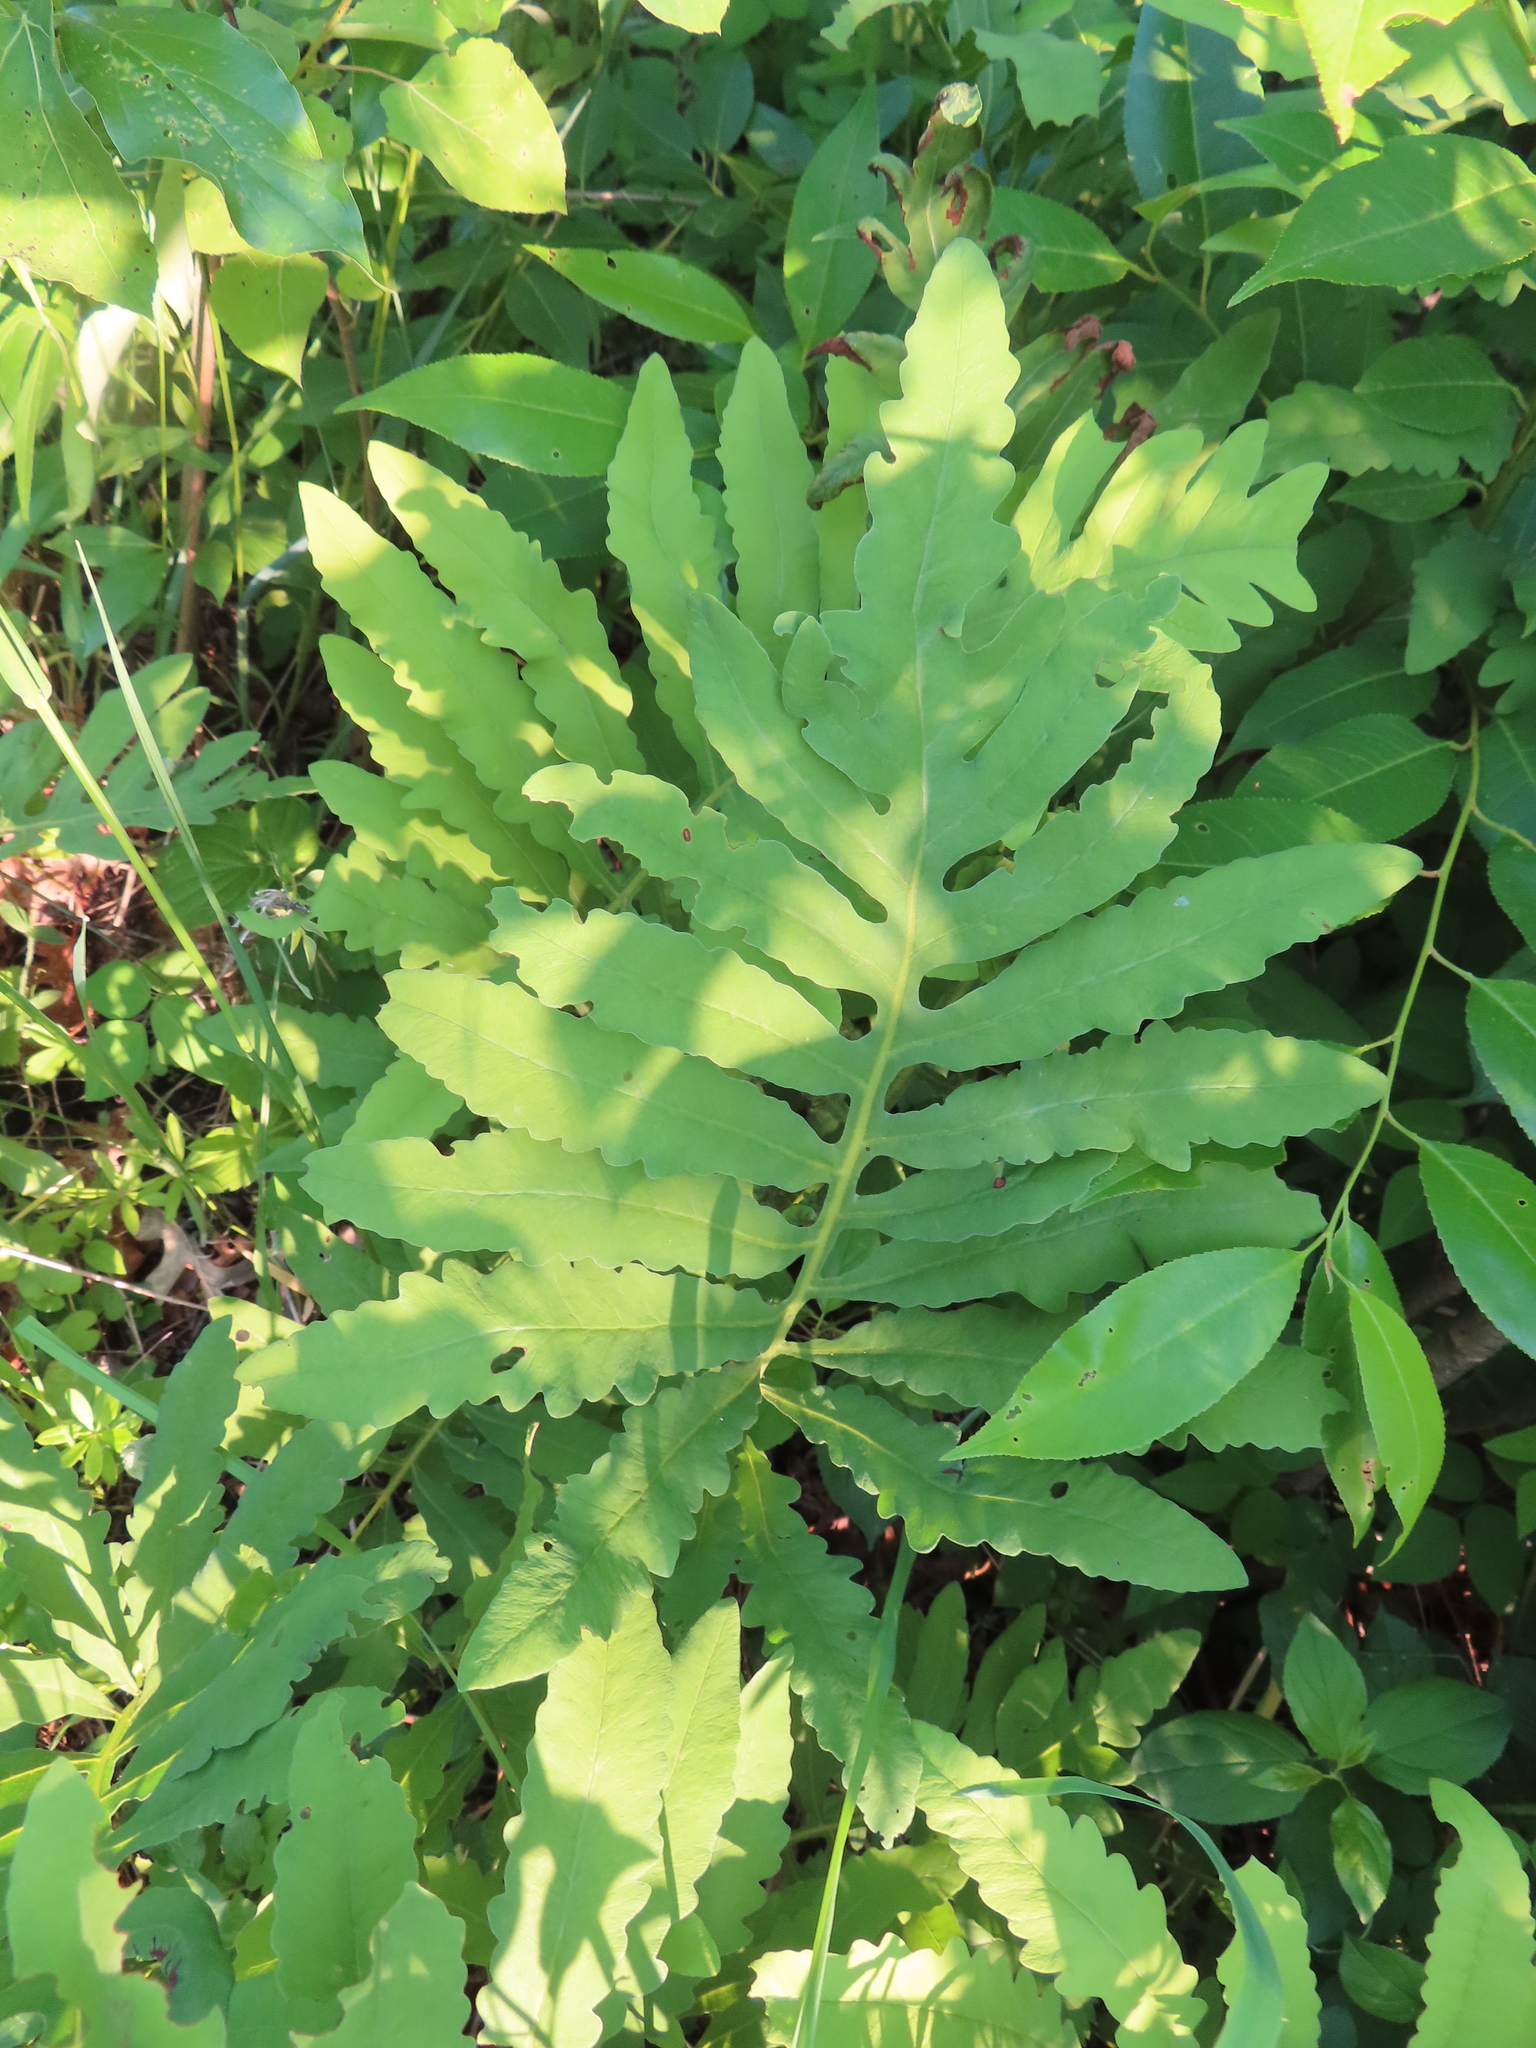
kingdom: Plantae
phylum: Tracheophyta
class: Polypodiopsida
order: Polypodiales
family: Onocleaceae
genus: Onoclea
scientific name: Onoclea sensibilis
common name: Sensitive fern
